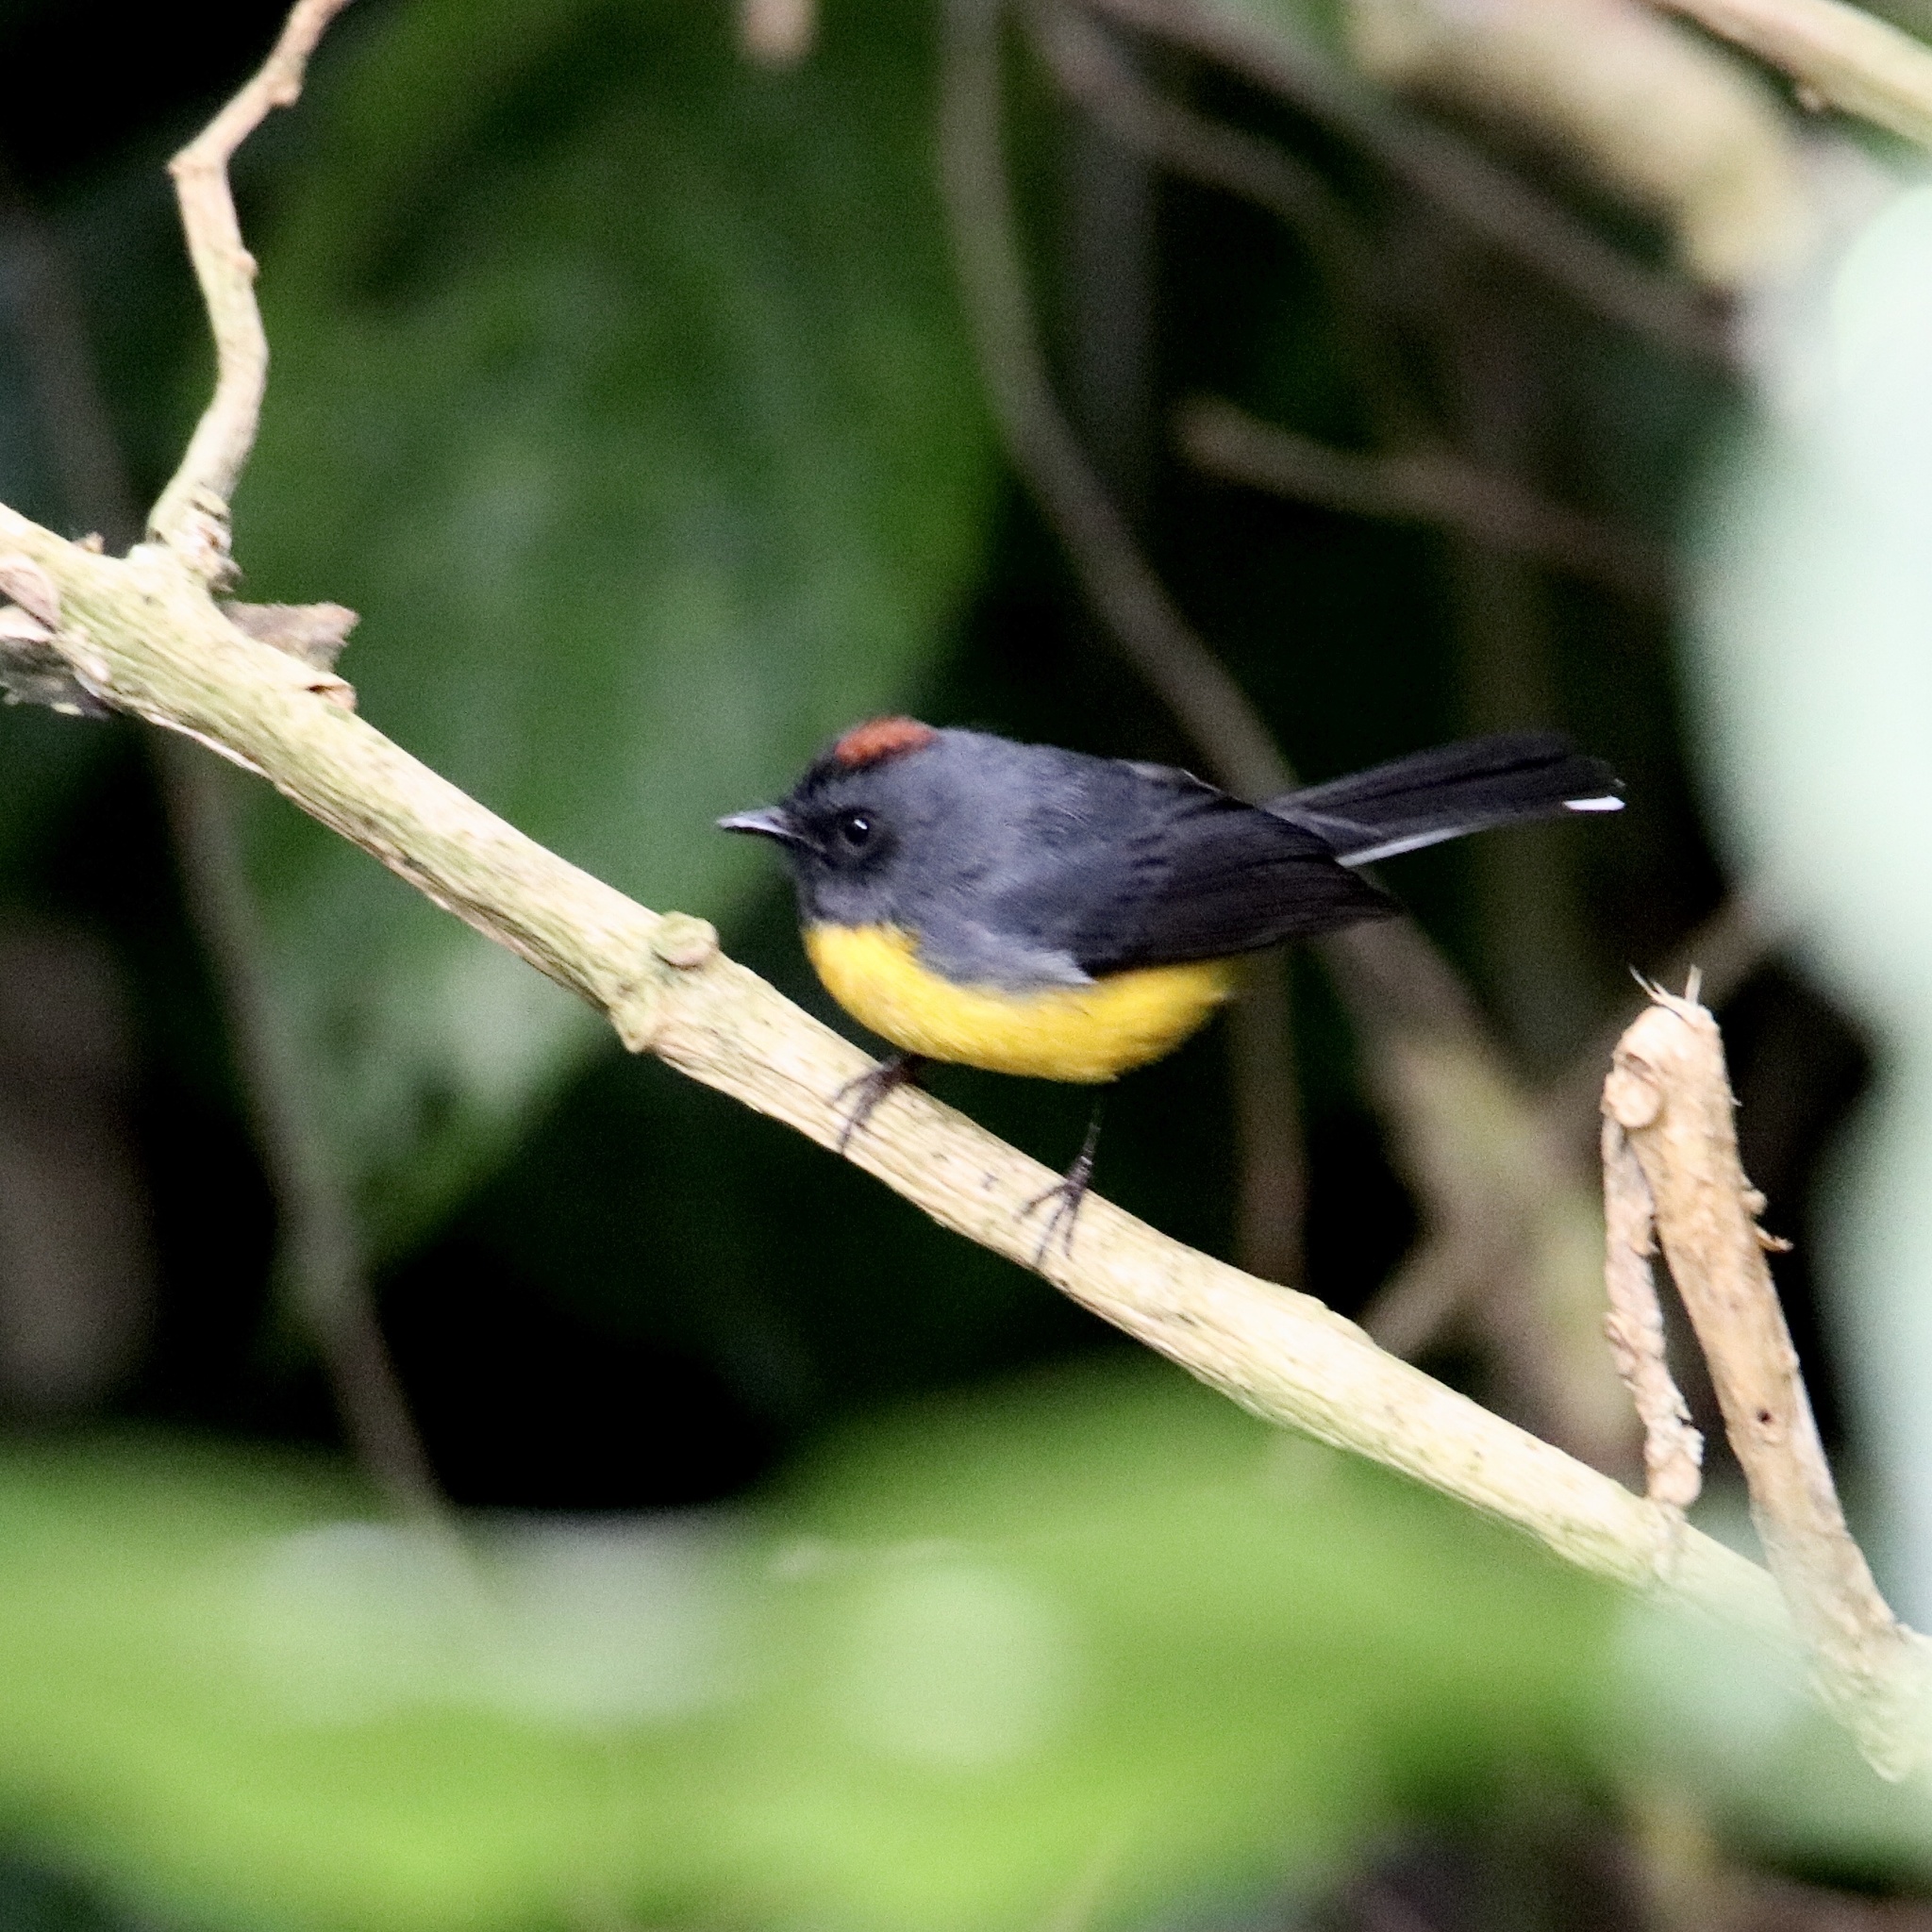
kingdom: Animalia
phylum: Chordata
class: Aves
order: Passeriformes
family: Parulidae
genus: Myioborus
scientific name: Myioborus miniatus
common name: Slate-throated redstart
